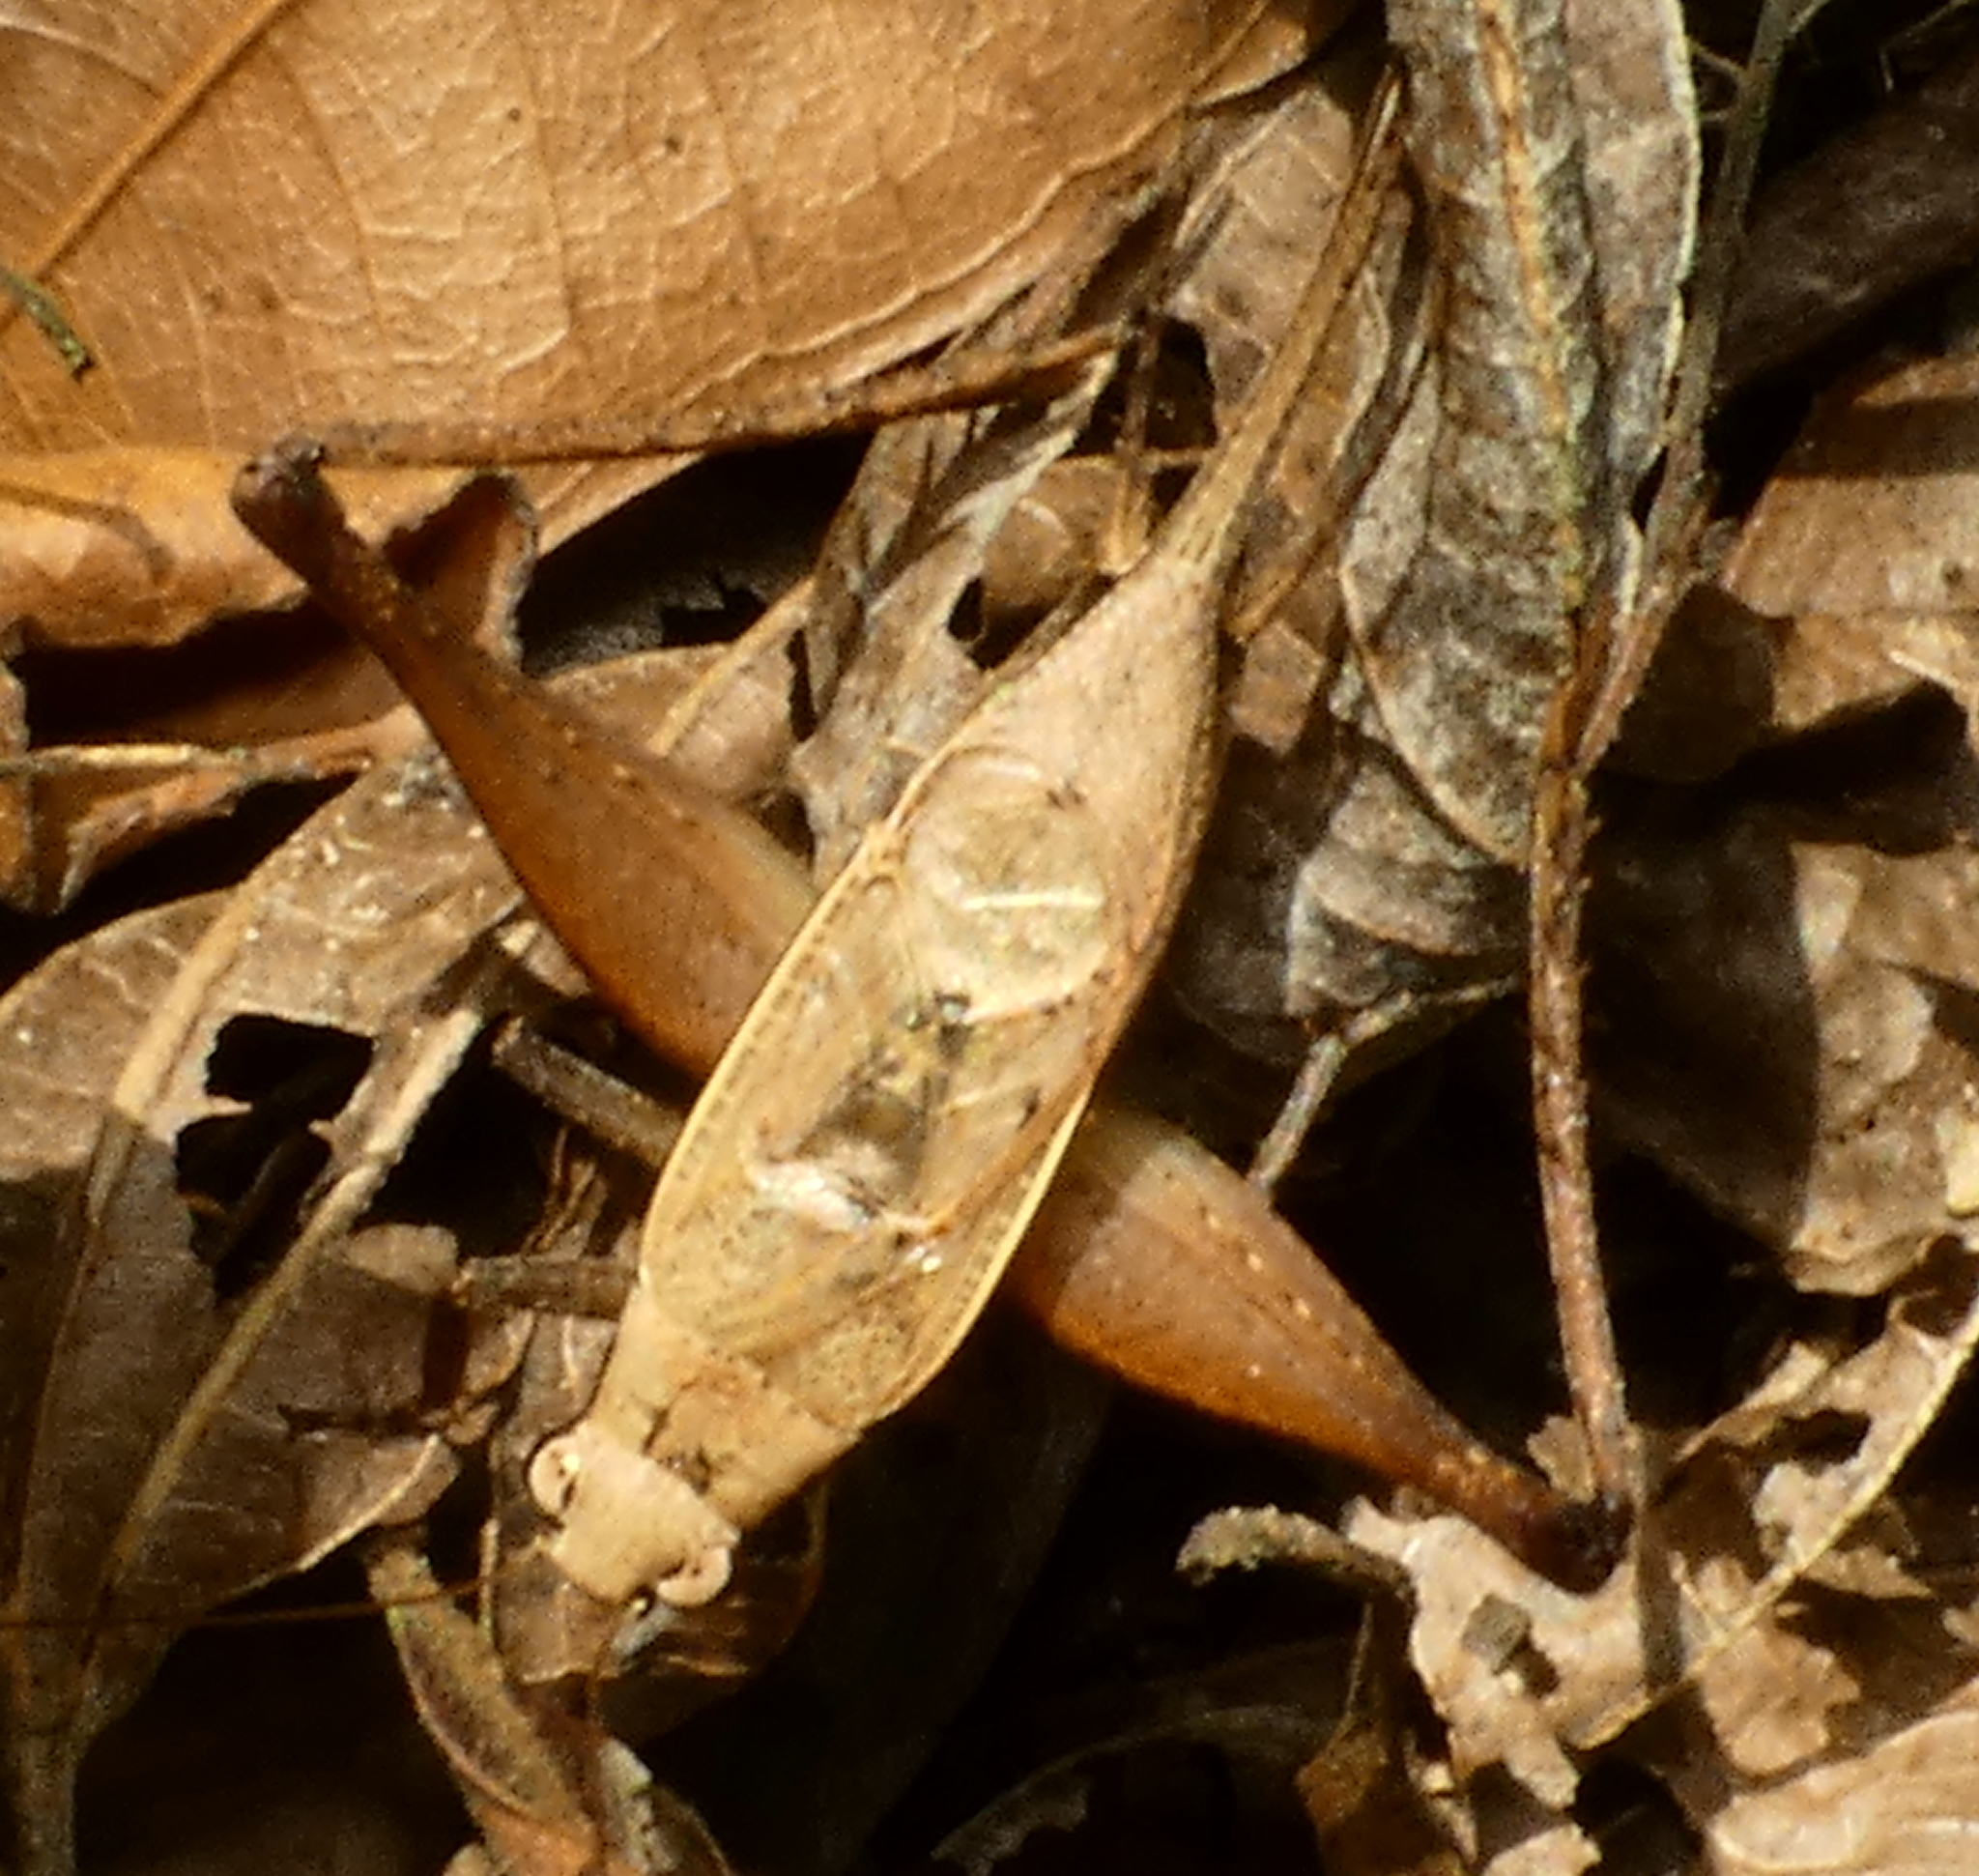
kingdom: Animalia
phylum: Arthropoda
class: Insecta
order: Orthoptera
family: Gryllidae
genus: Eneoptera
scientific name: Eneoptera surinamensis
